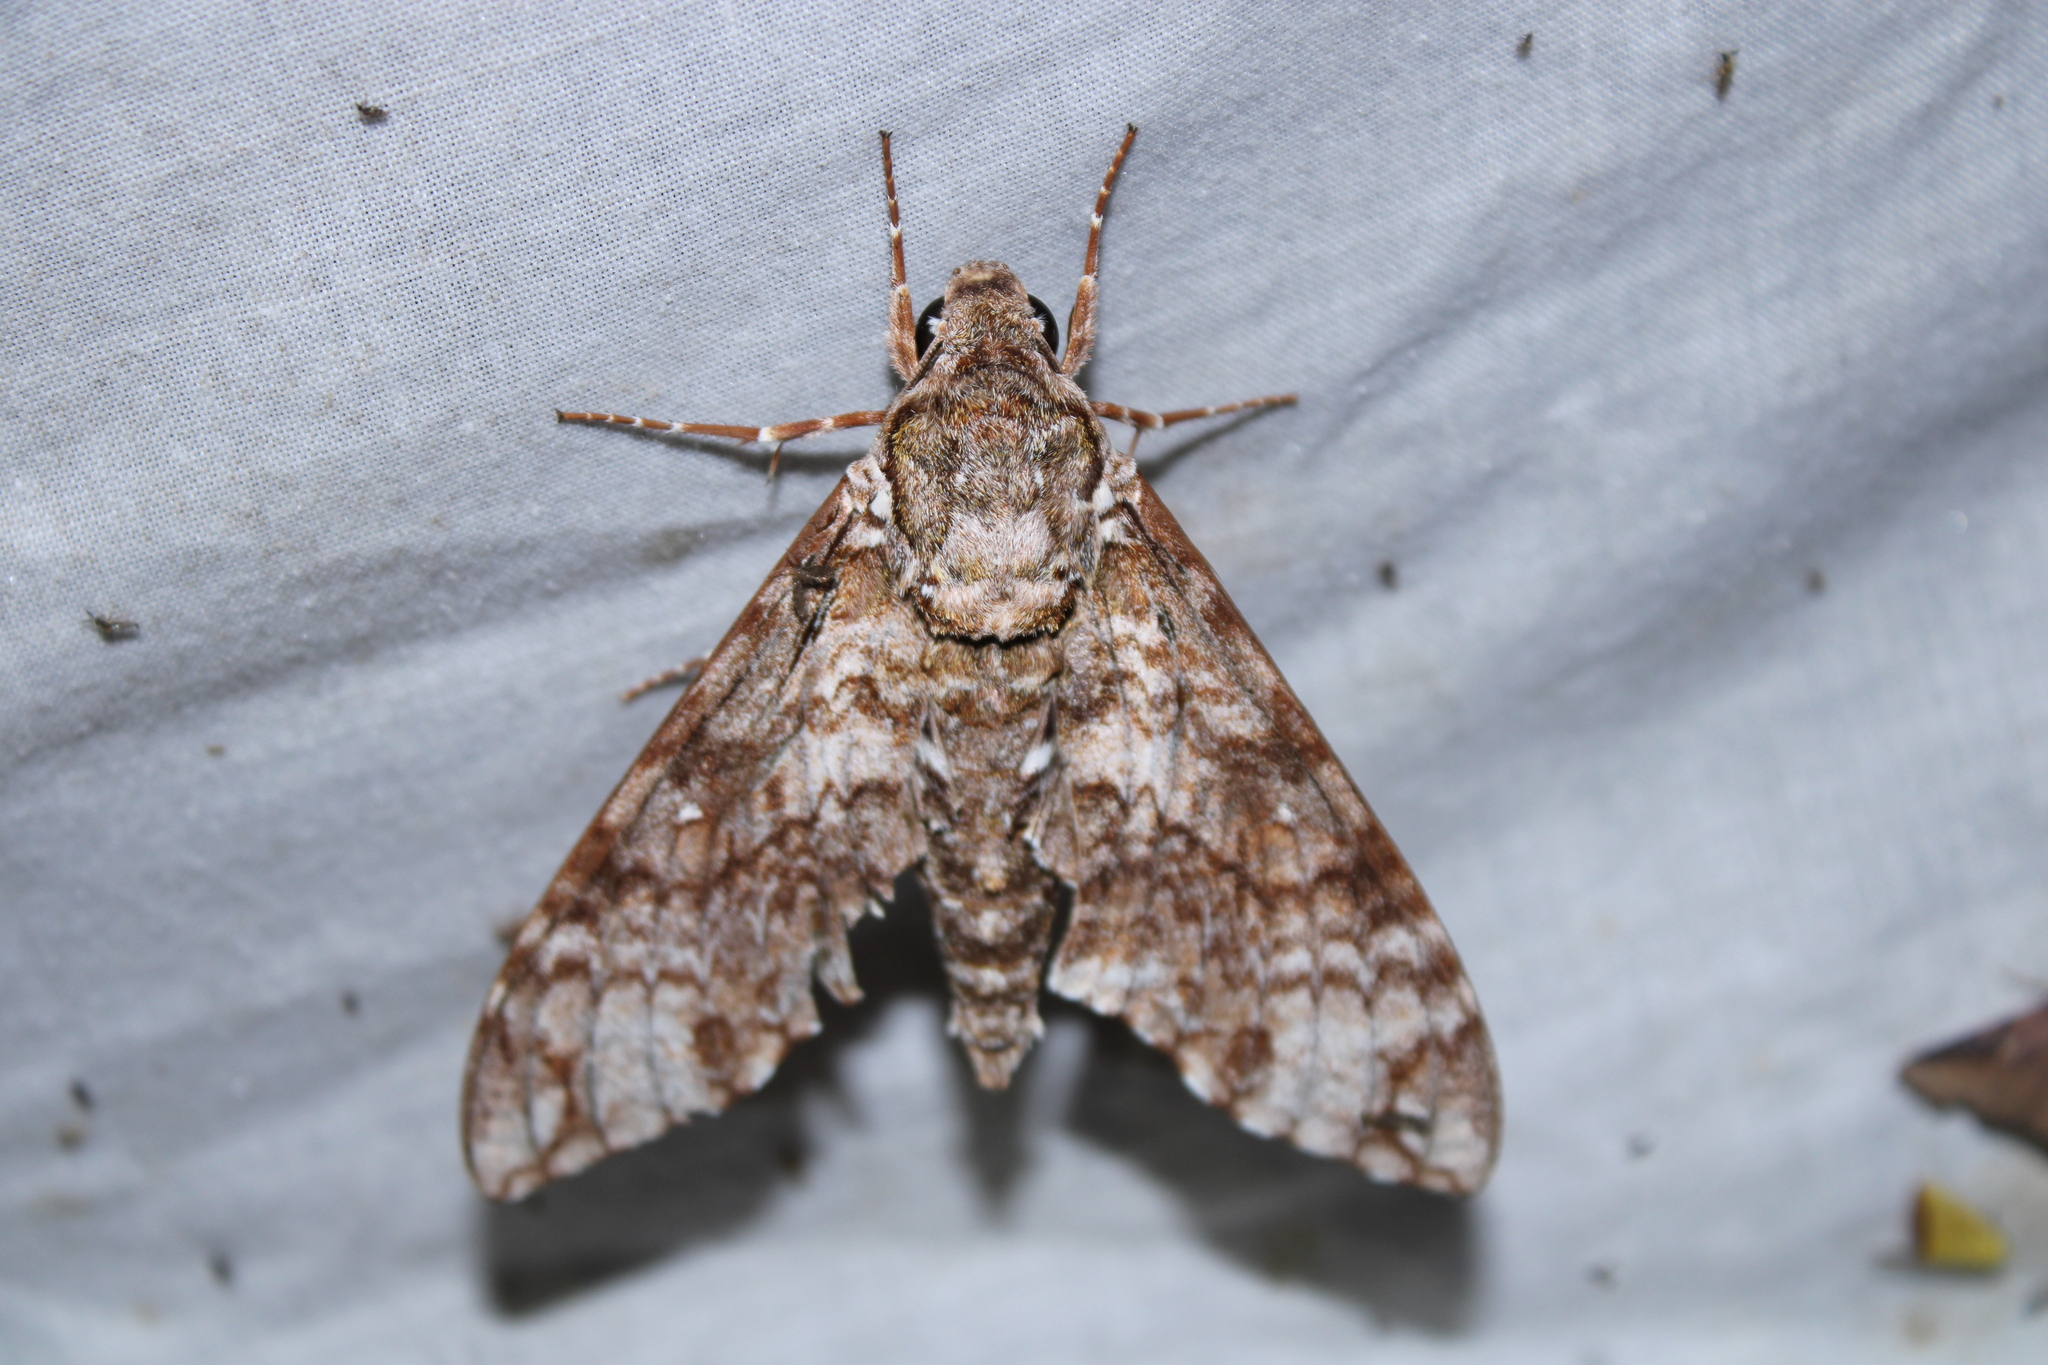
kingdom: Animalia
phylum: Arthropoda
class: Insecta
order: Lepidoptera
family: Sphingidae
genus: Manduca
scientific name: Manduca schausi
